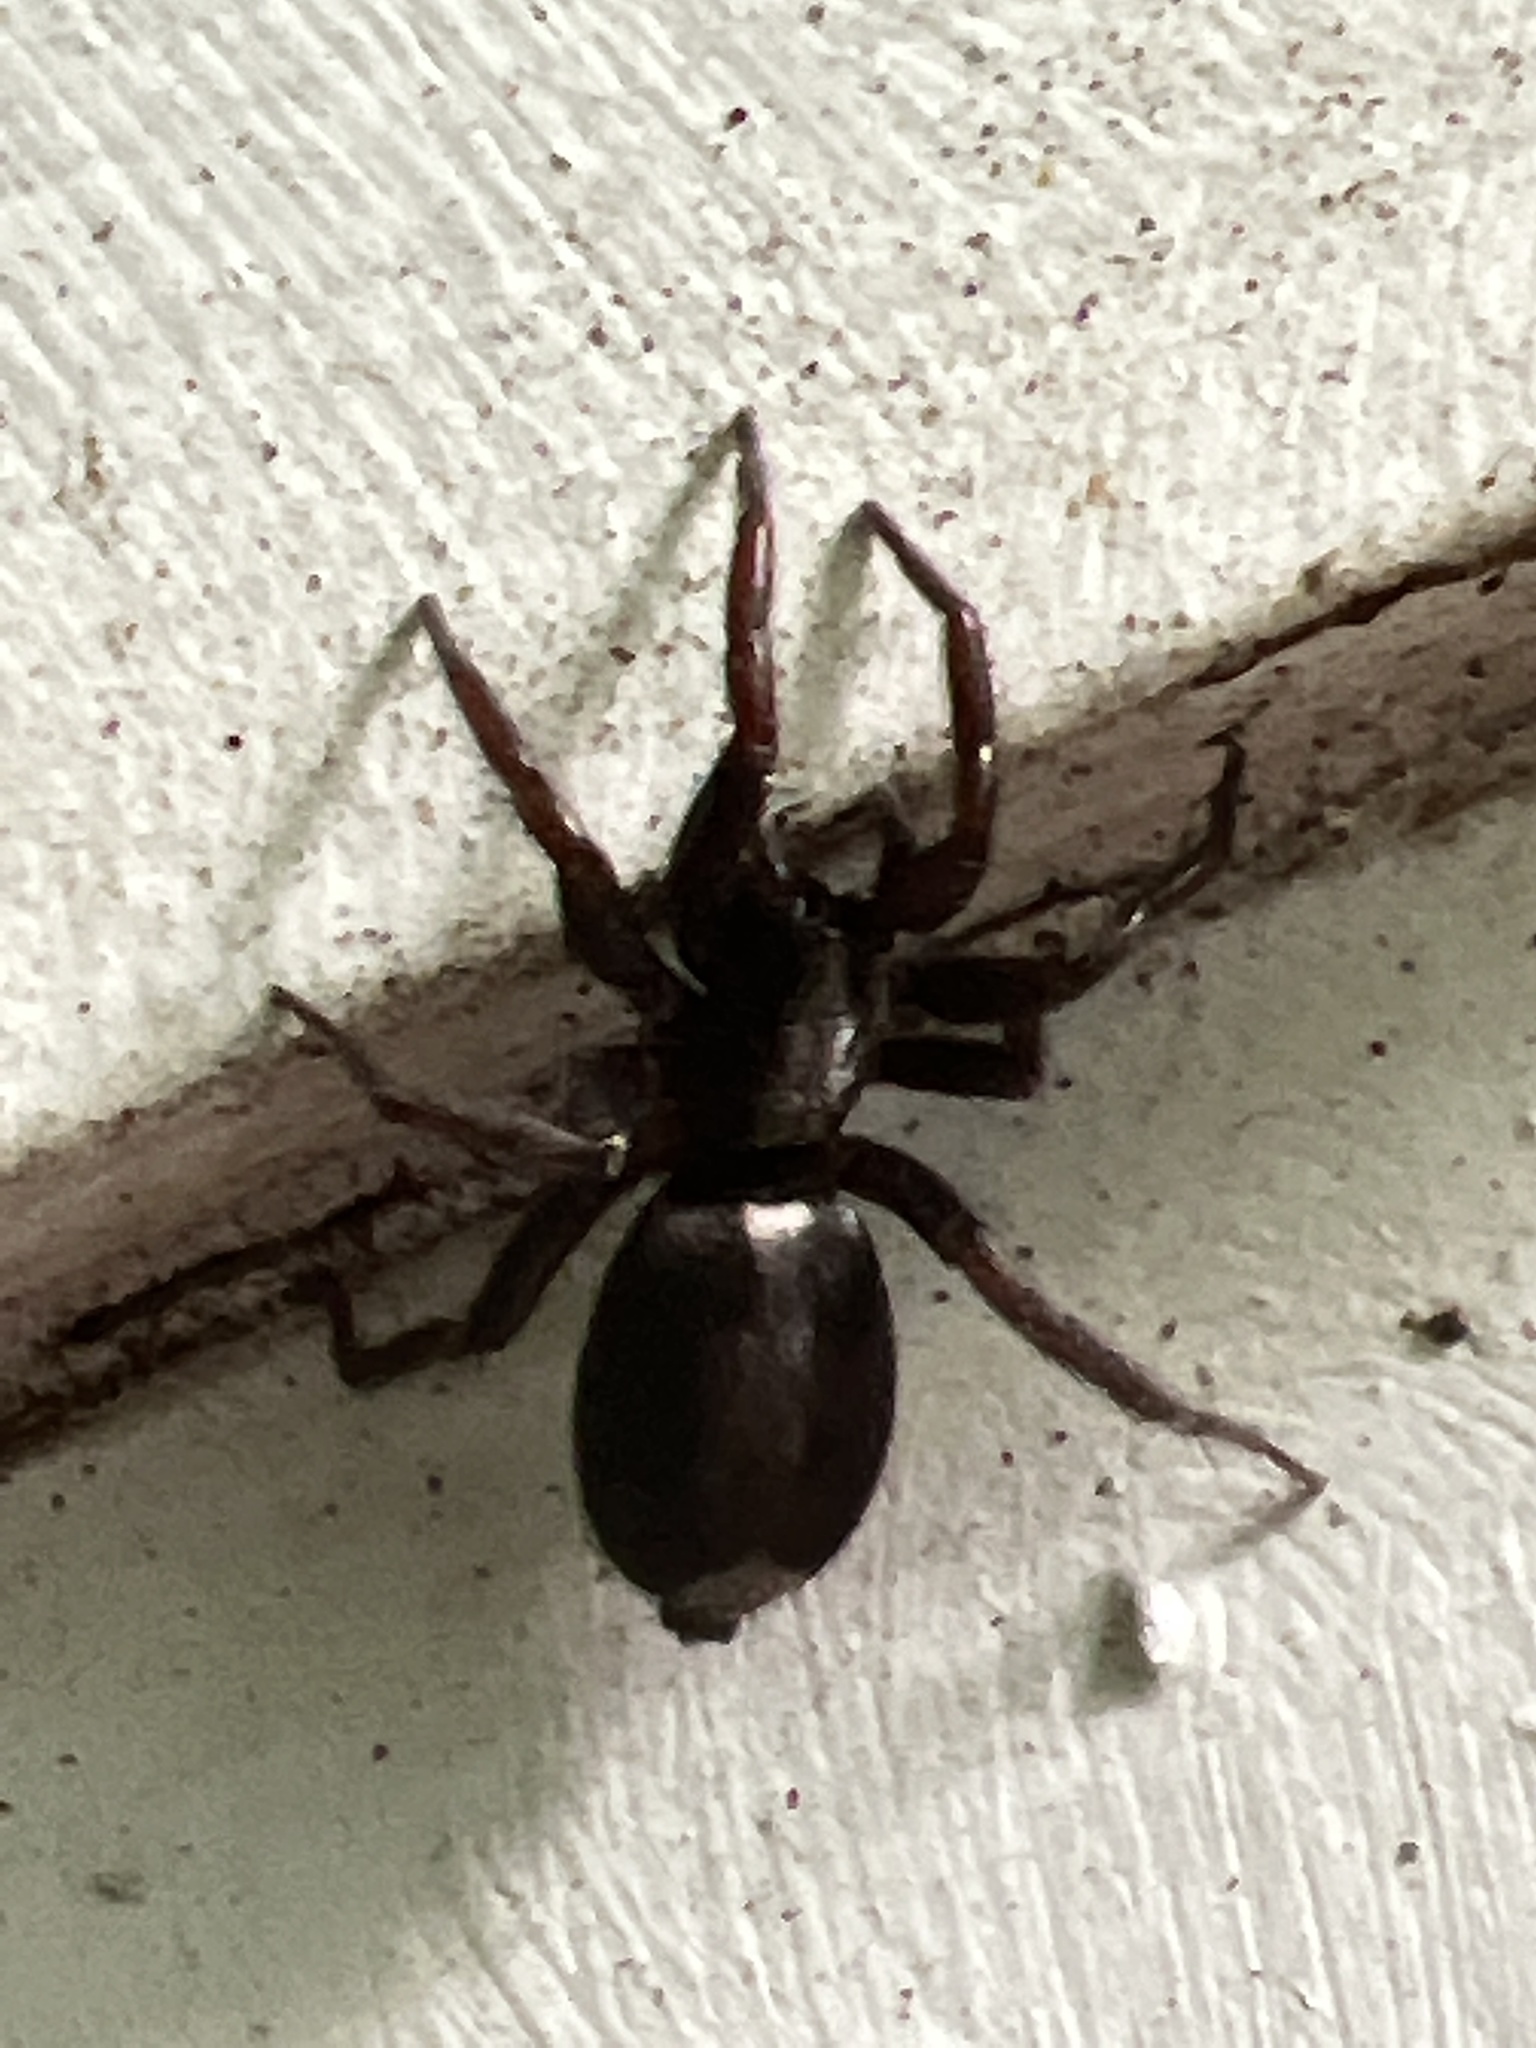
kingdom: Animalia
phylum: Arthropoda
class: Arachnida
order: Araneae
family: Gnaphosidae
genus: Herpyllus
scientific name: Herpyllus ecclesiasticus
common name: Eastern parson spider
